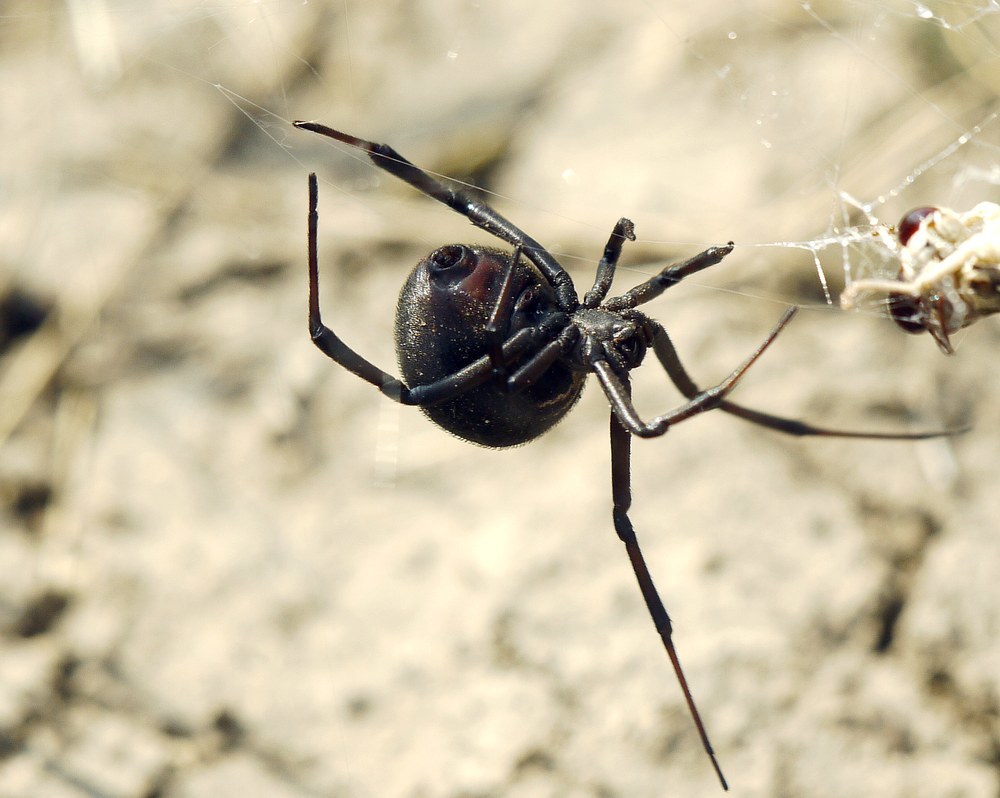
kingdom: Animalia
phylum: Arthropoda
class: Arachnida
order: Araneae
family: Theridiidae
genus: Latrodectus
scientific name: Latrodectus tredecimguttatus
